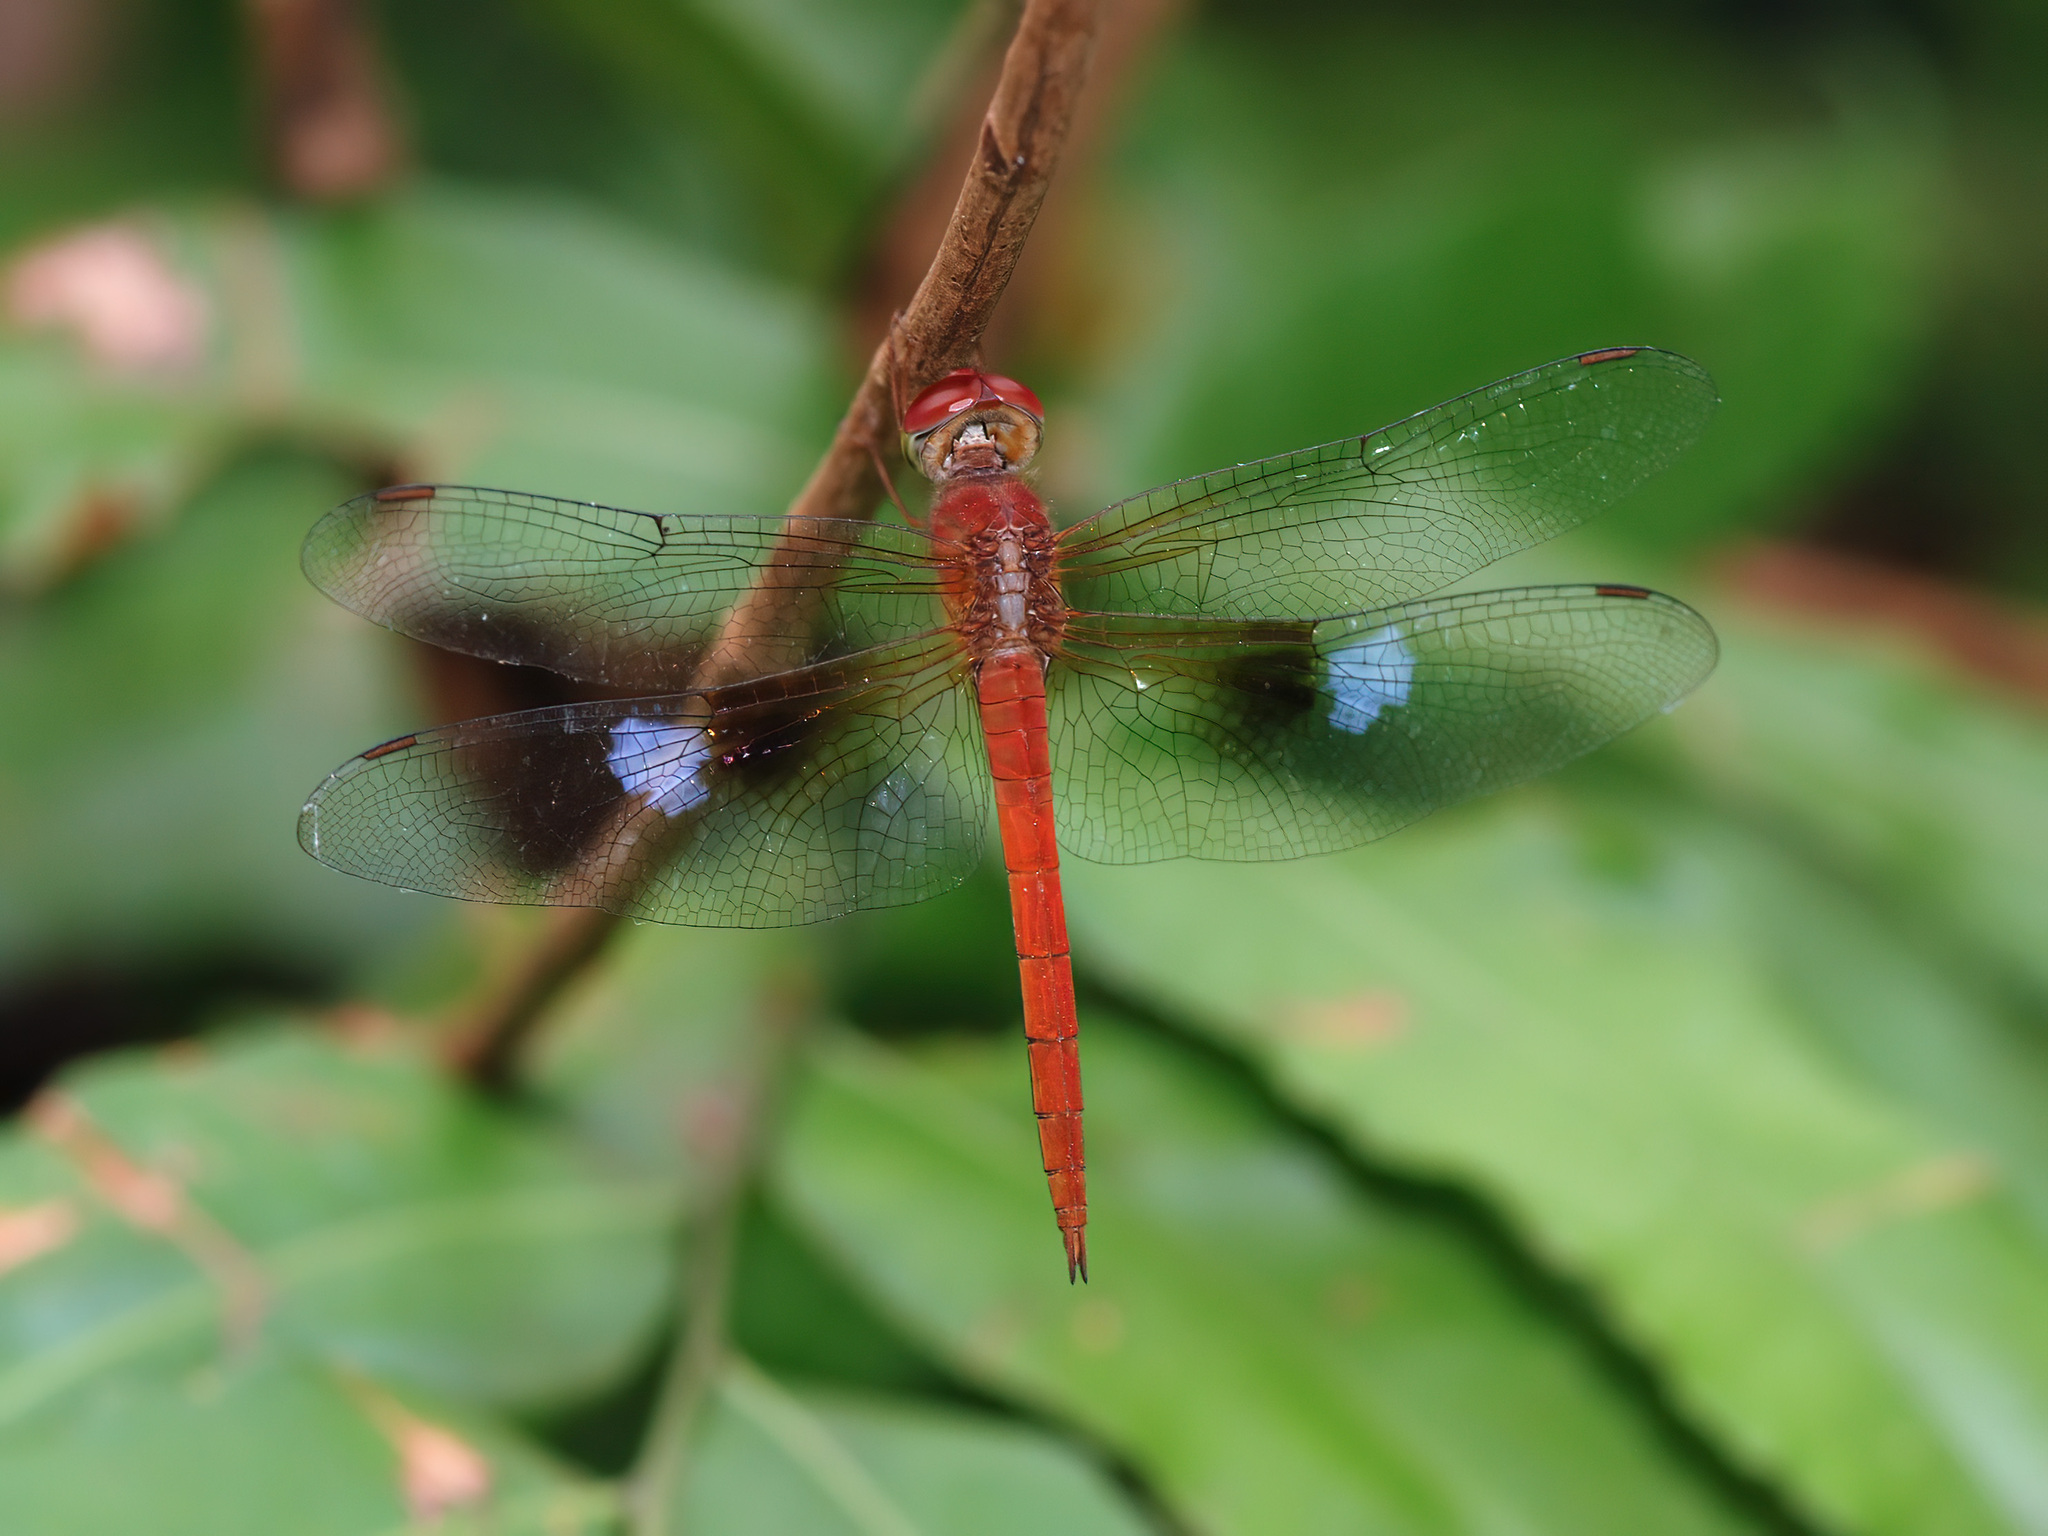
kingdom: Animalia
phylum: Arthropoda
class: Insecta
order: Odonata
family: Libellulidae
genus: Tholymis
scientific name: Tholymis tillarga
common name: Coral-tailed cloud wing
